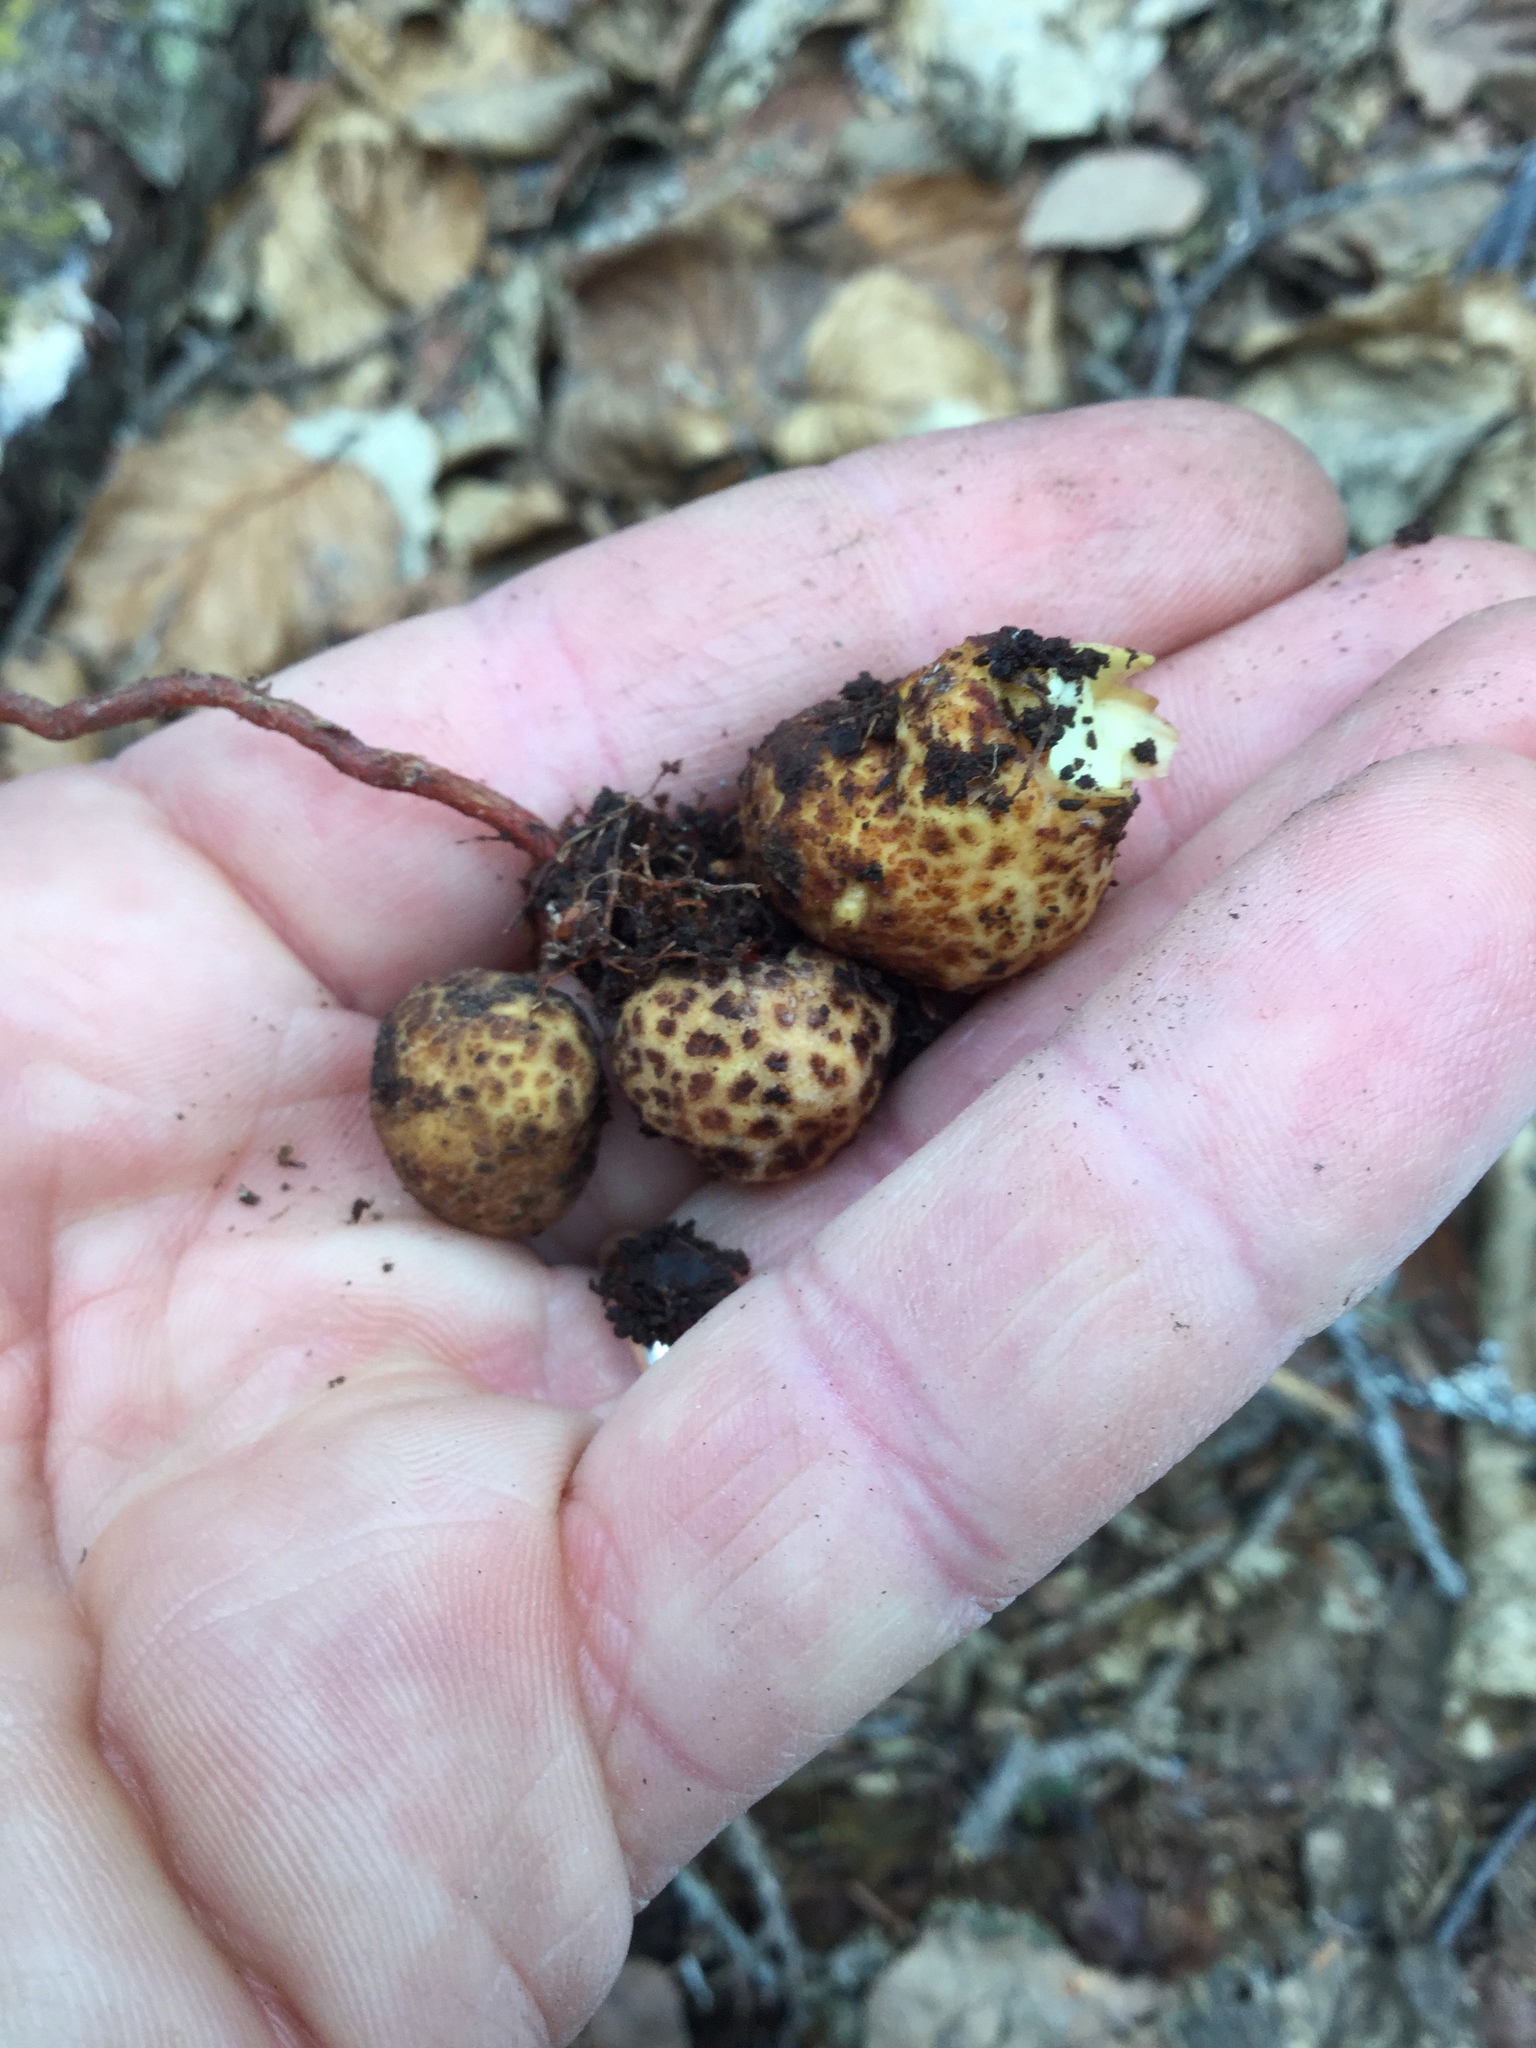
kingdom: Plantae
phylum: Tracheophyta
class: Magnoliopsida
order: Lamiales
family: Orobanchaceae
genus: Boschniakia
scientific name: Boschniakia rossica
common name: Poque
